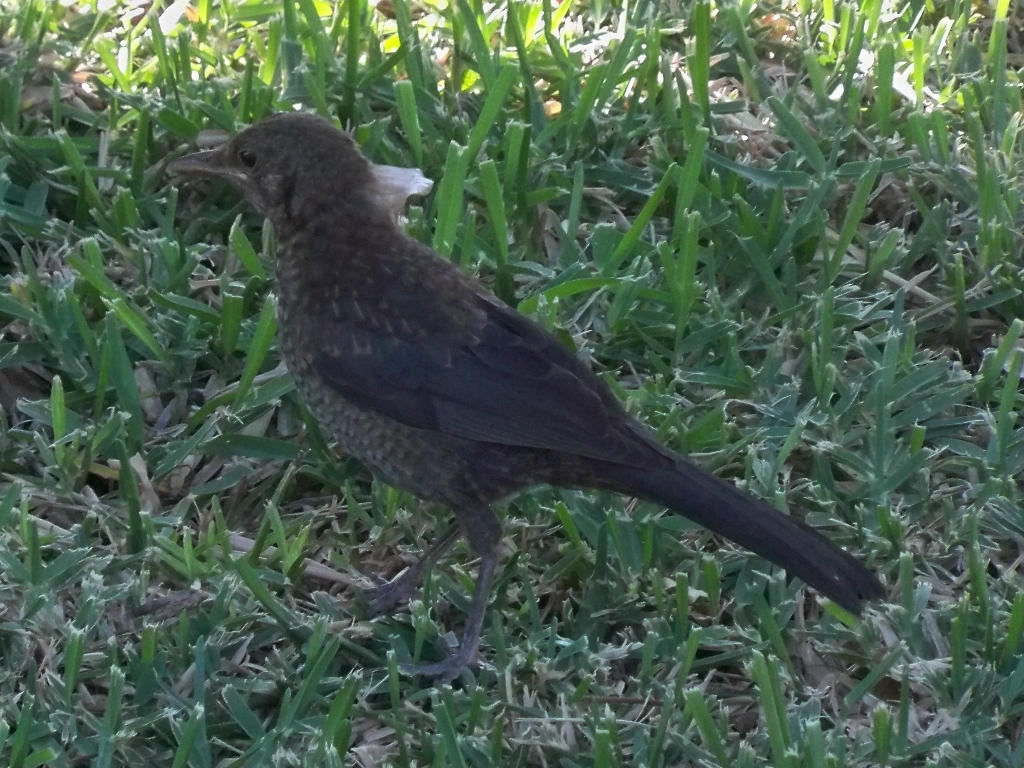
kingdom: Animalia
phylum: Chordata
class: Aves
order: Passeriformes
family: Turdidae
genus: Turdus
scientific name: Turdus merula
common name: Common blackbird
